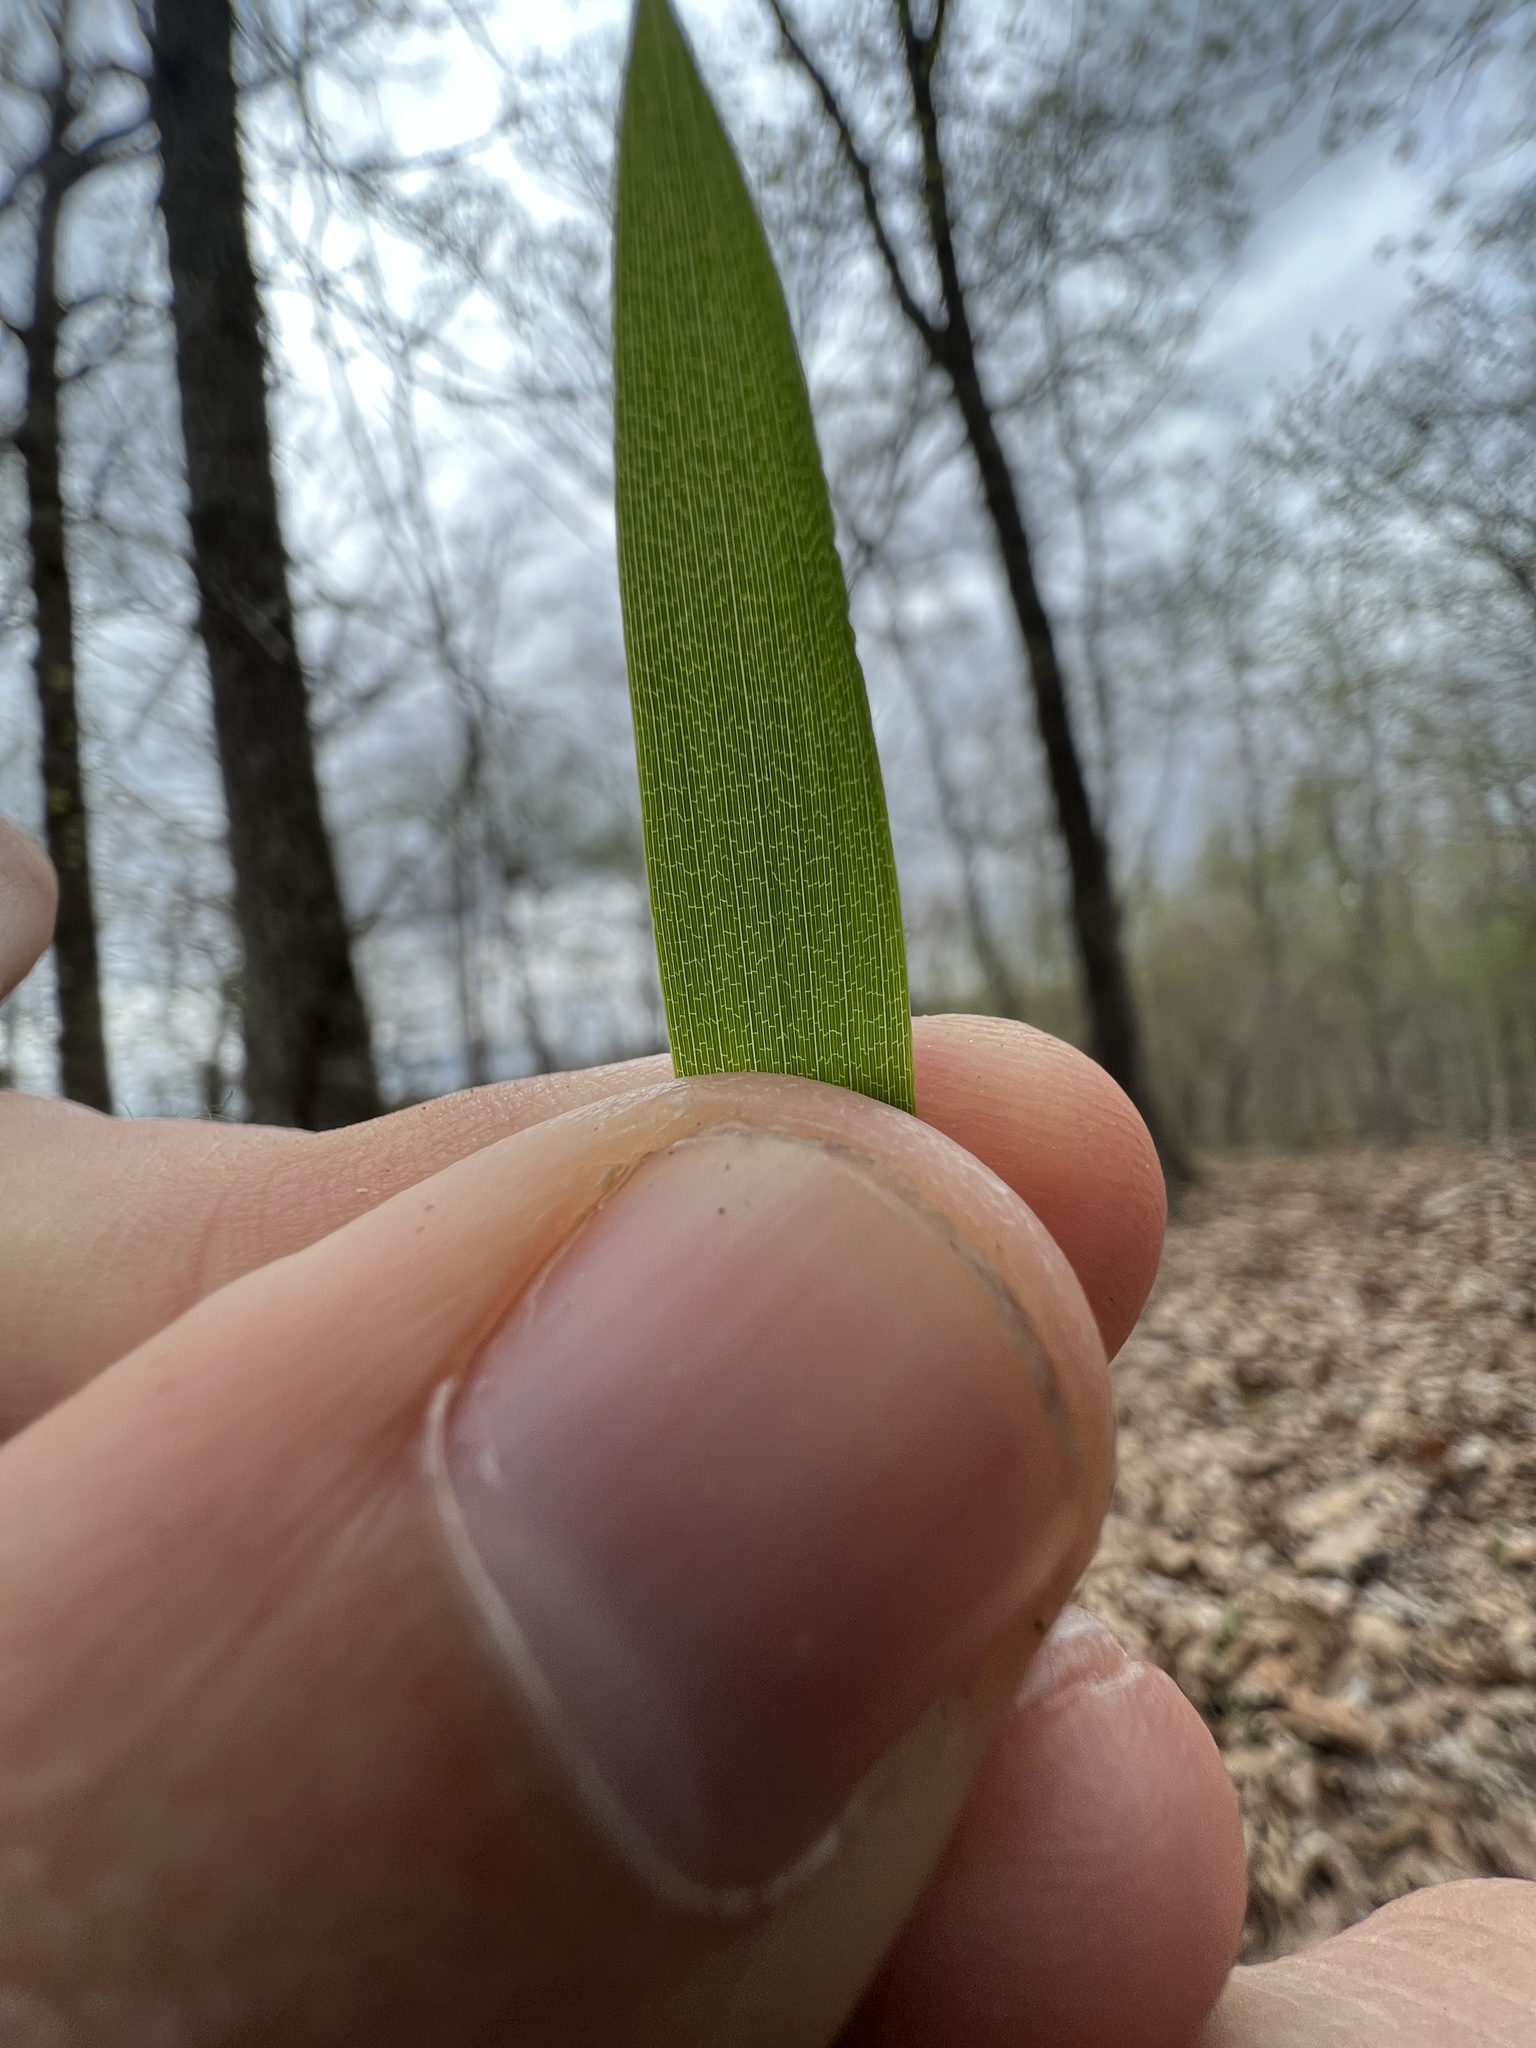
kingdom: Plantae
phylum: Tracheophyta
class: Liliopsida
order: Poales
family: Poaceae
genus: Brachyelytrum
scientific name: Brachyelytrum erectum
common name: Bearded shorthusk
